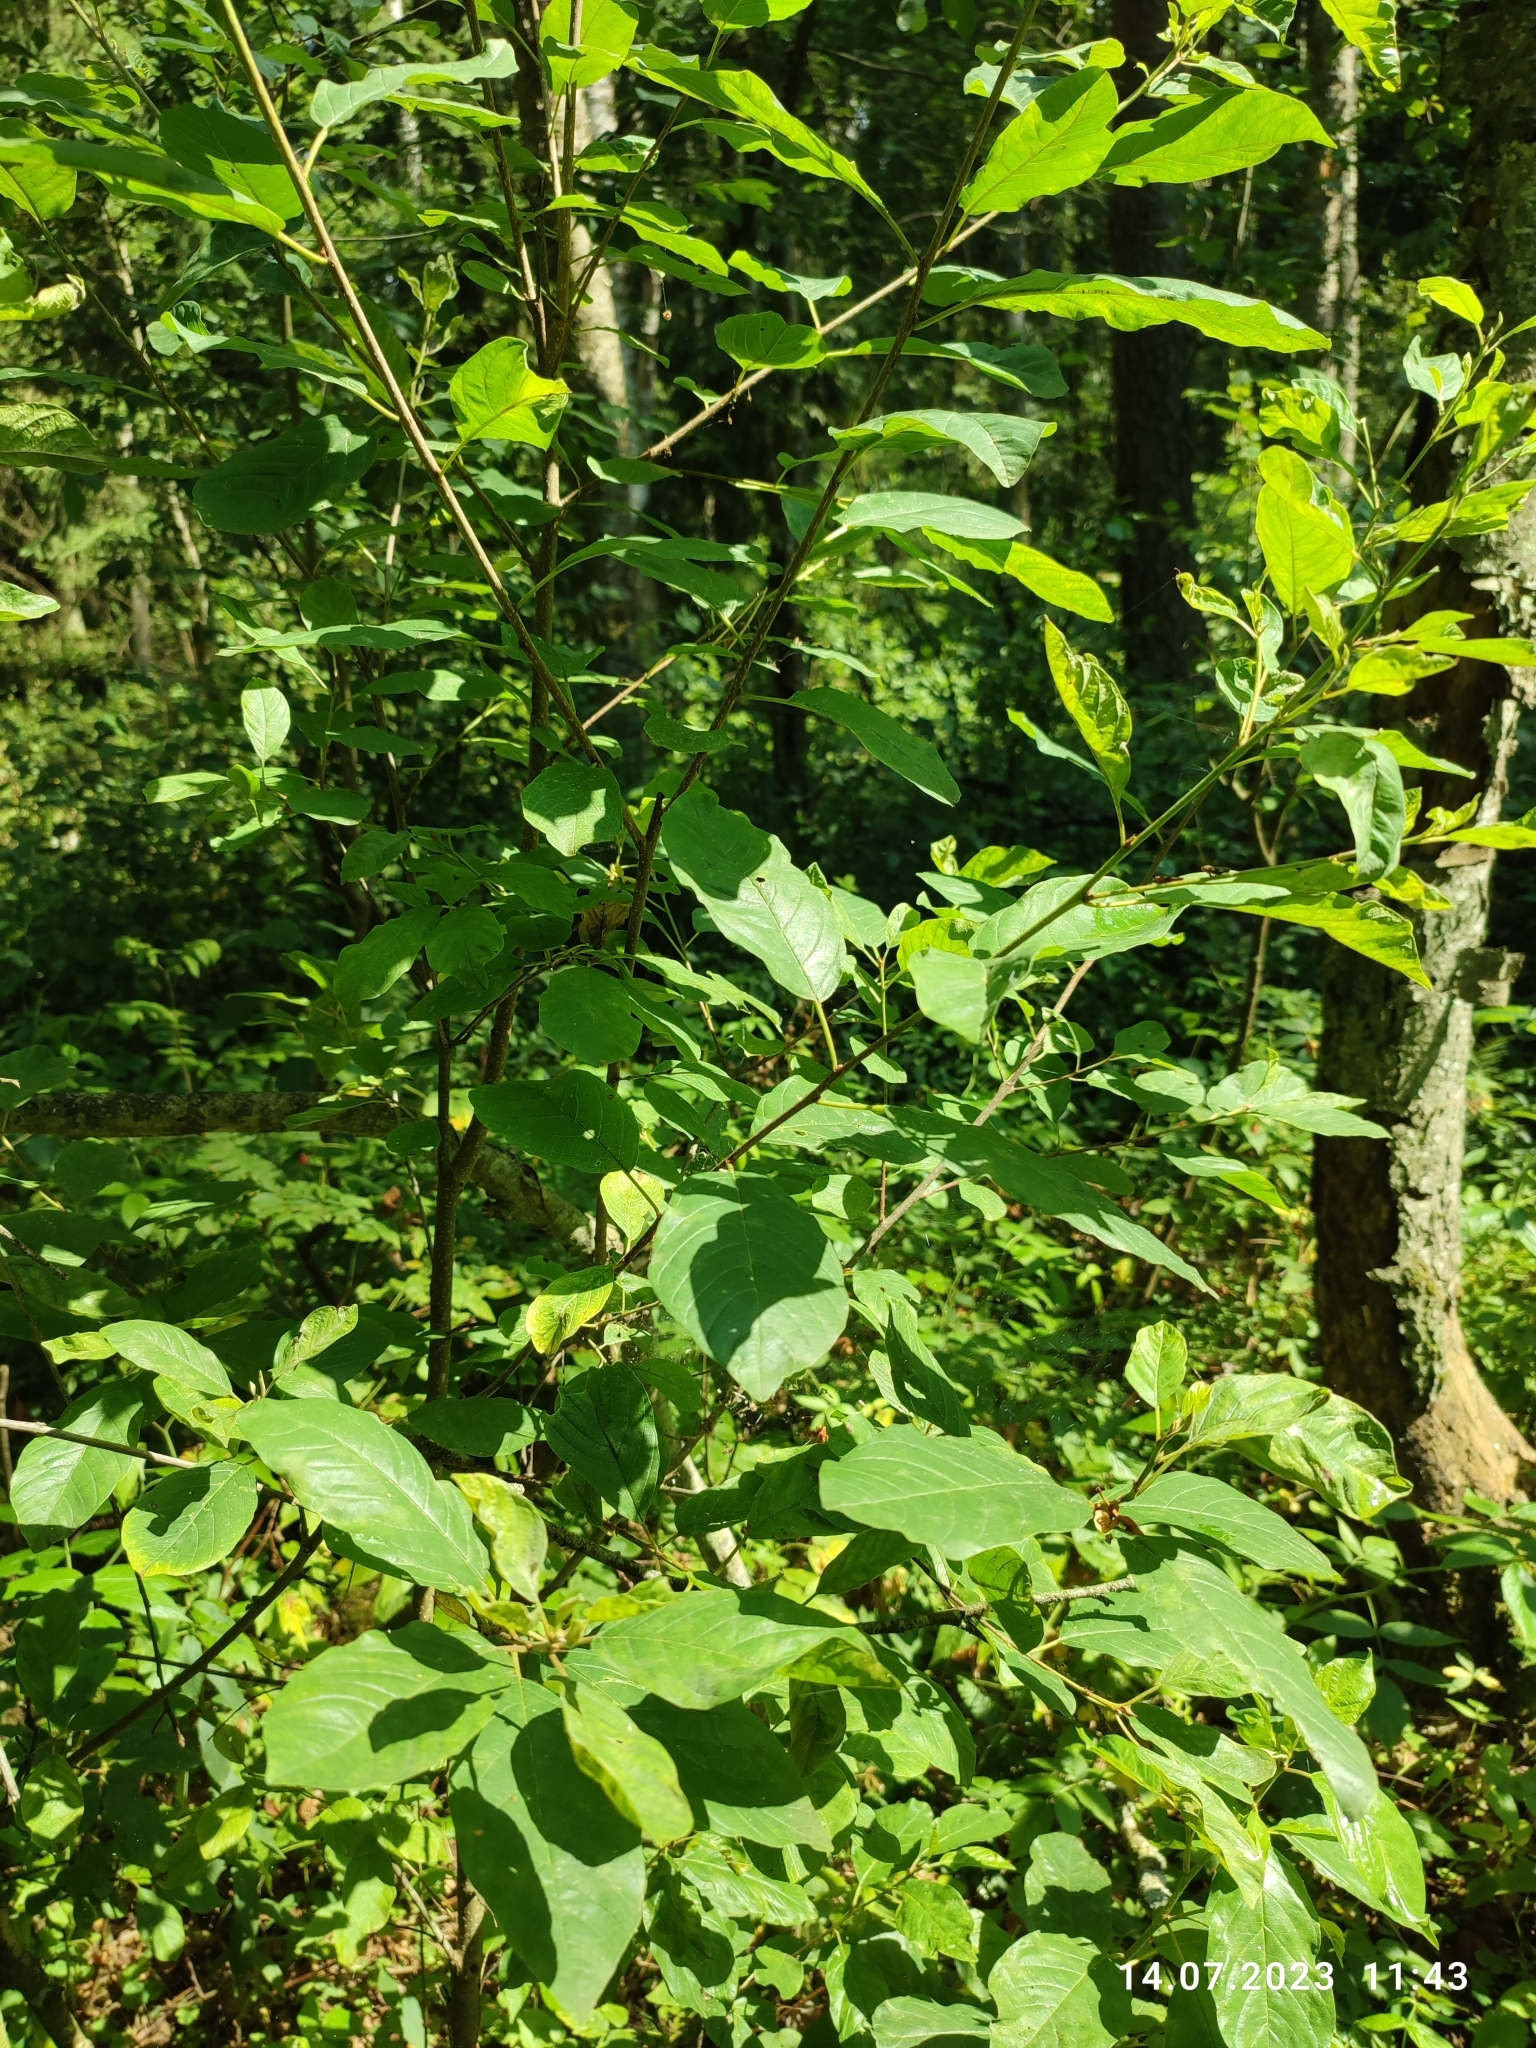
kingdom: Plantae
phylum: Tracheophyta
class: Magnoliopsida
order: Rosales
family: Rhamnaceae
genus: Frangula
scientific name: Frangula alnus
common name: Alder buckthorn
